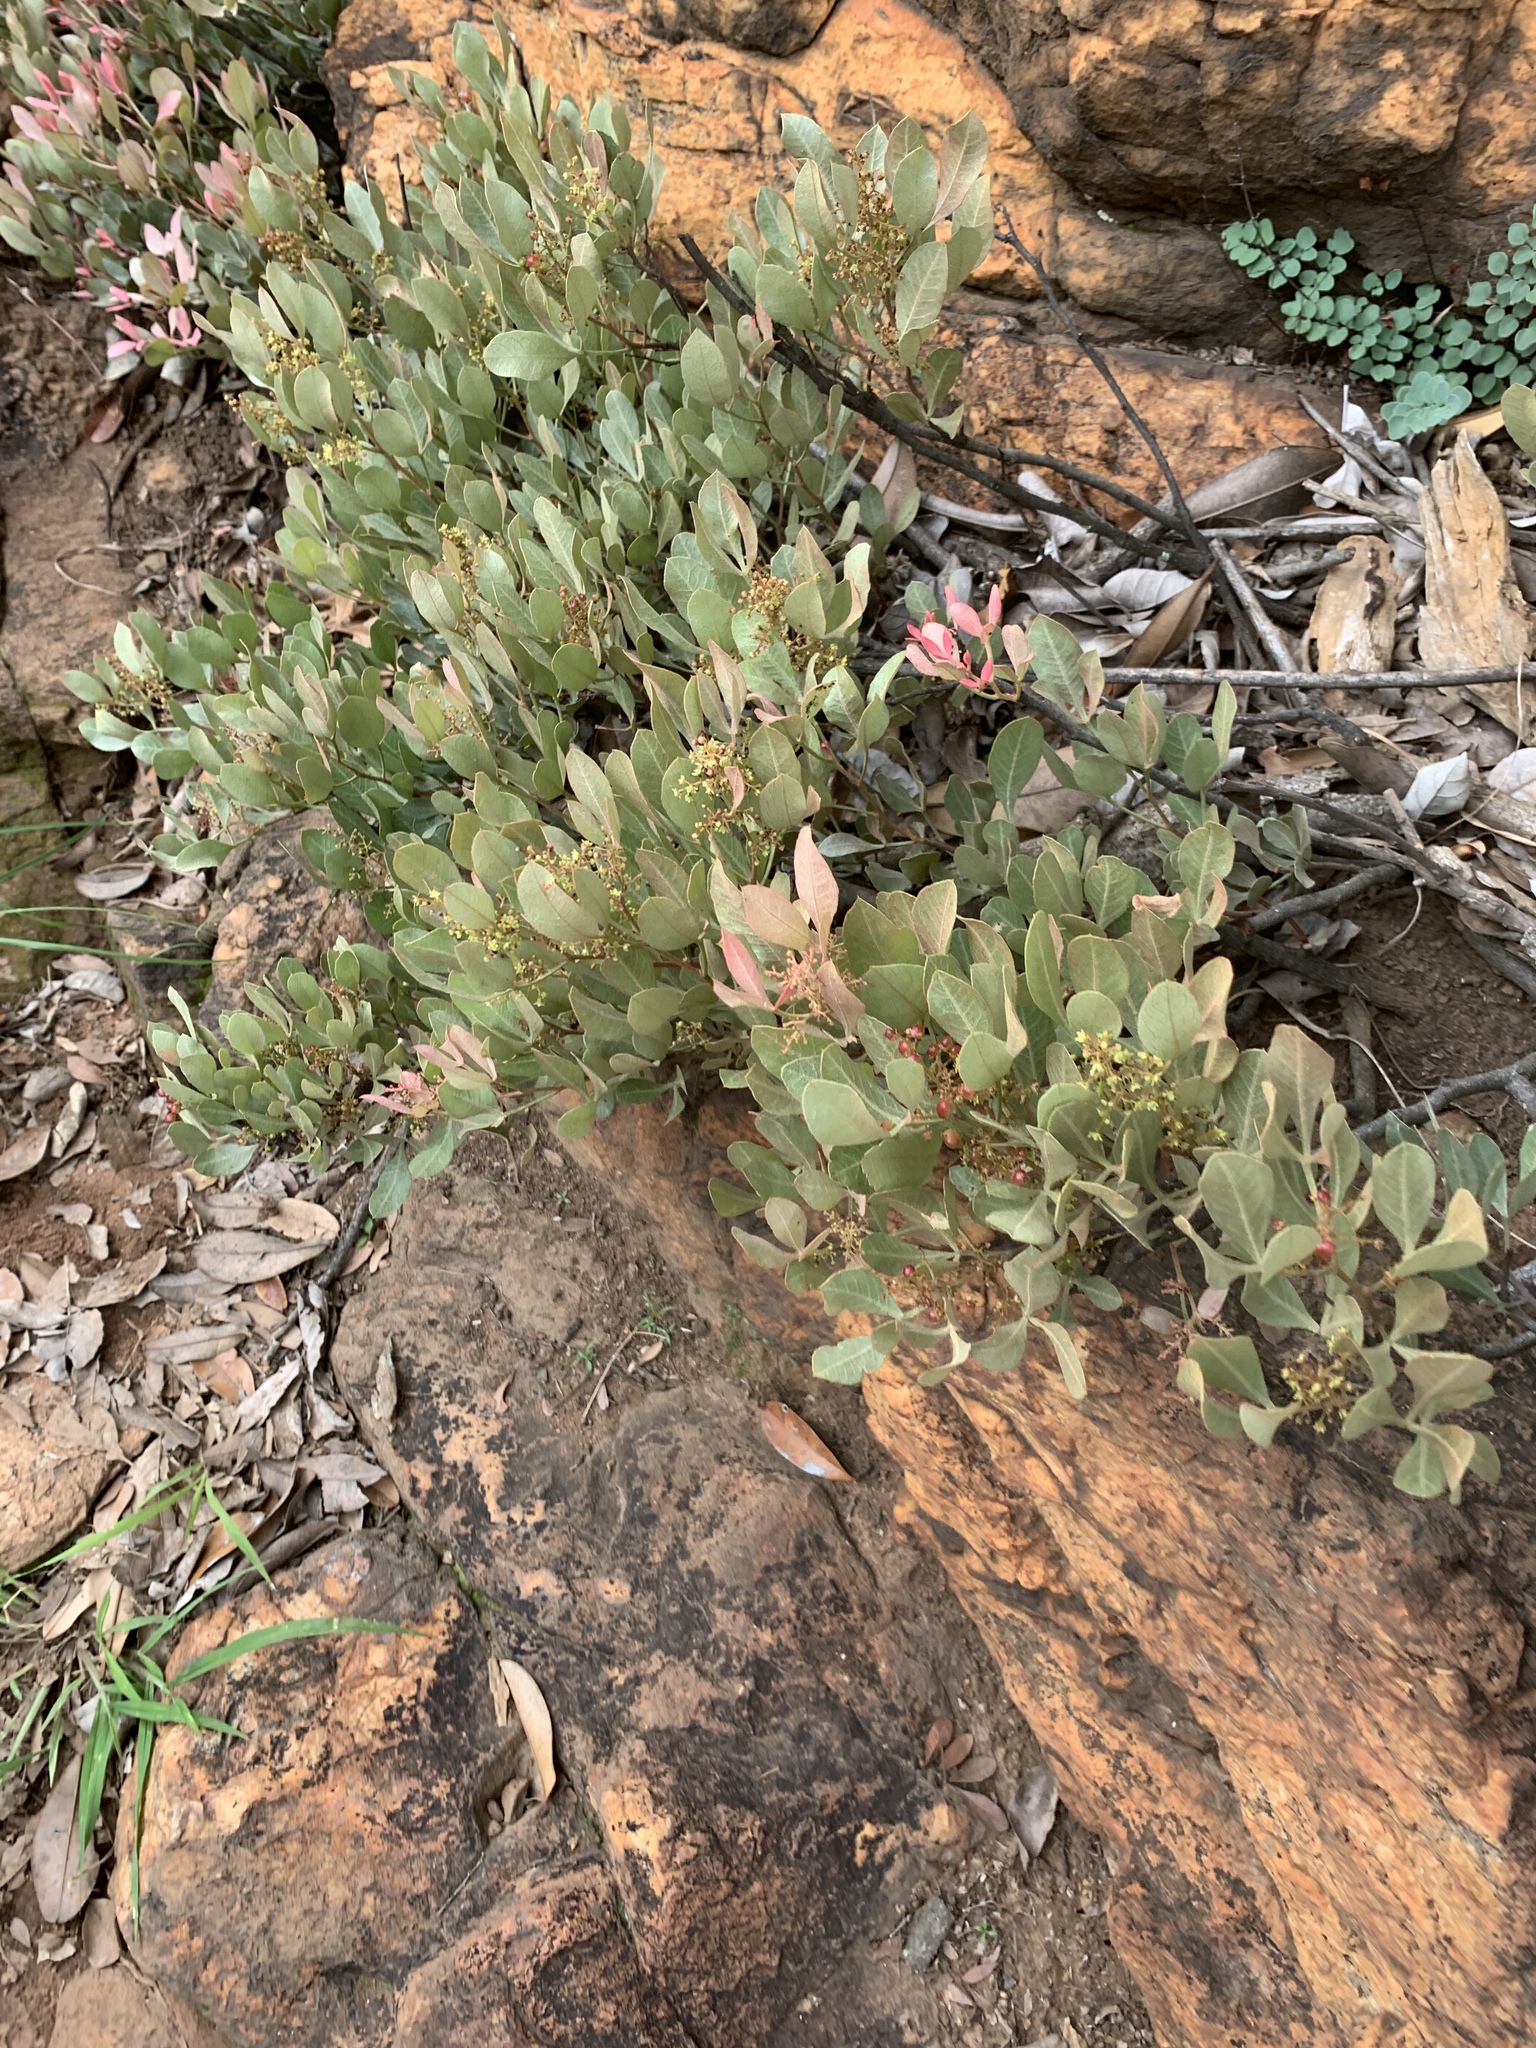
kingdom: Plantae
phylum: Tracheophyta
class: Magnoliopsida
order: Sapindales
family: Anacardiaceae
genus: Searsia
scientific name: Searsia magalismontana
